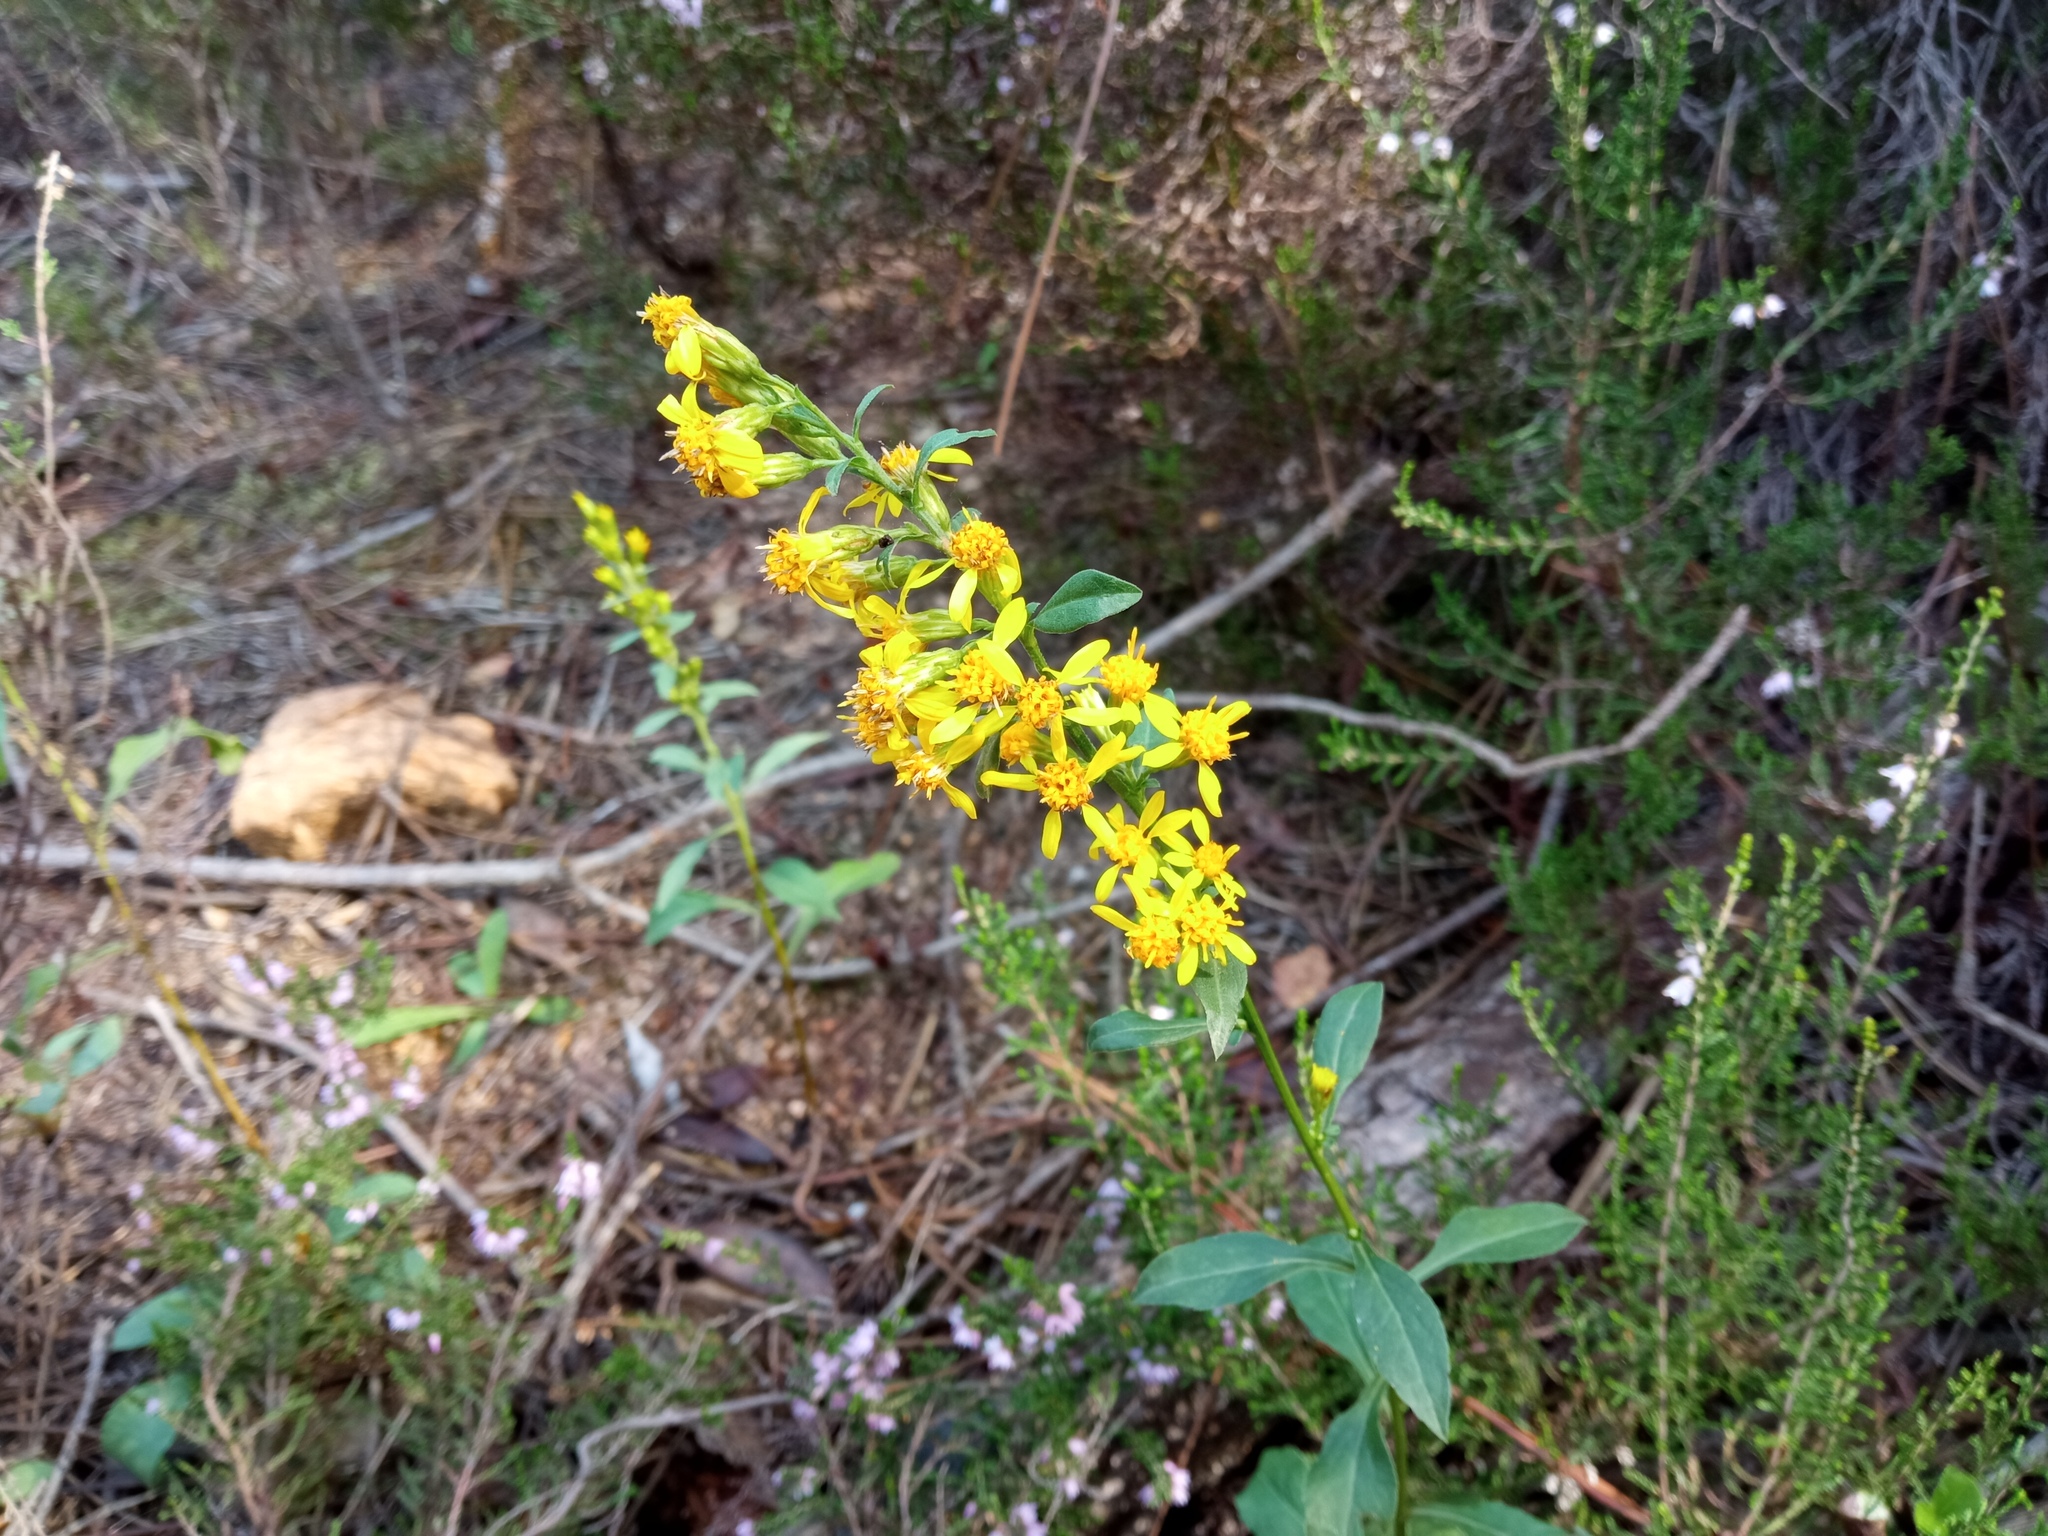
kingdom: Plantae
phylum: Tracheophyta
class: Magnoliopsida
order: Asterales
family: Asteraceae
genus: Solidago
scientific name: Solidago virgaurea
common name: Goldenrod
